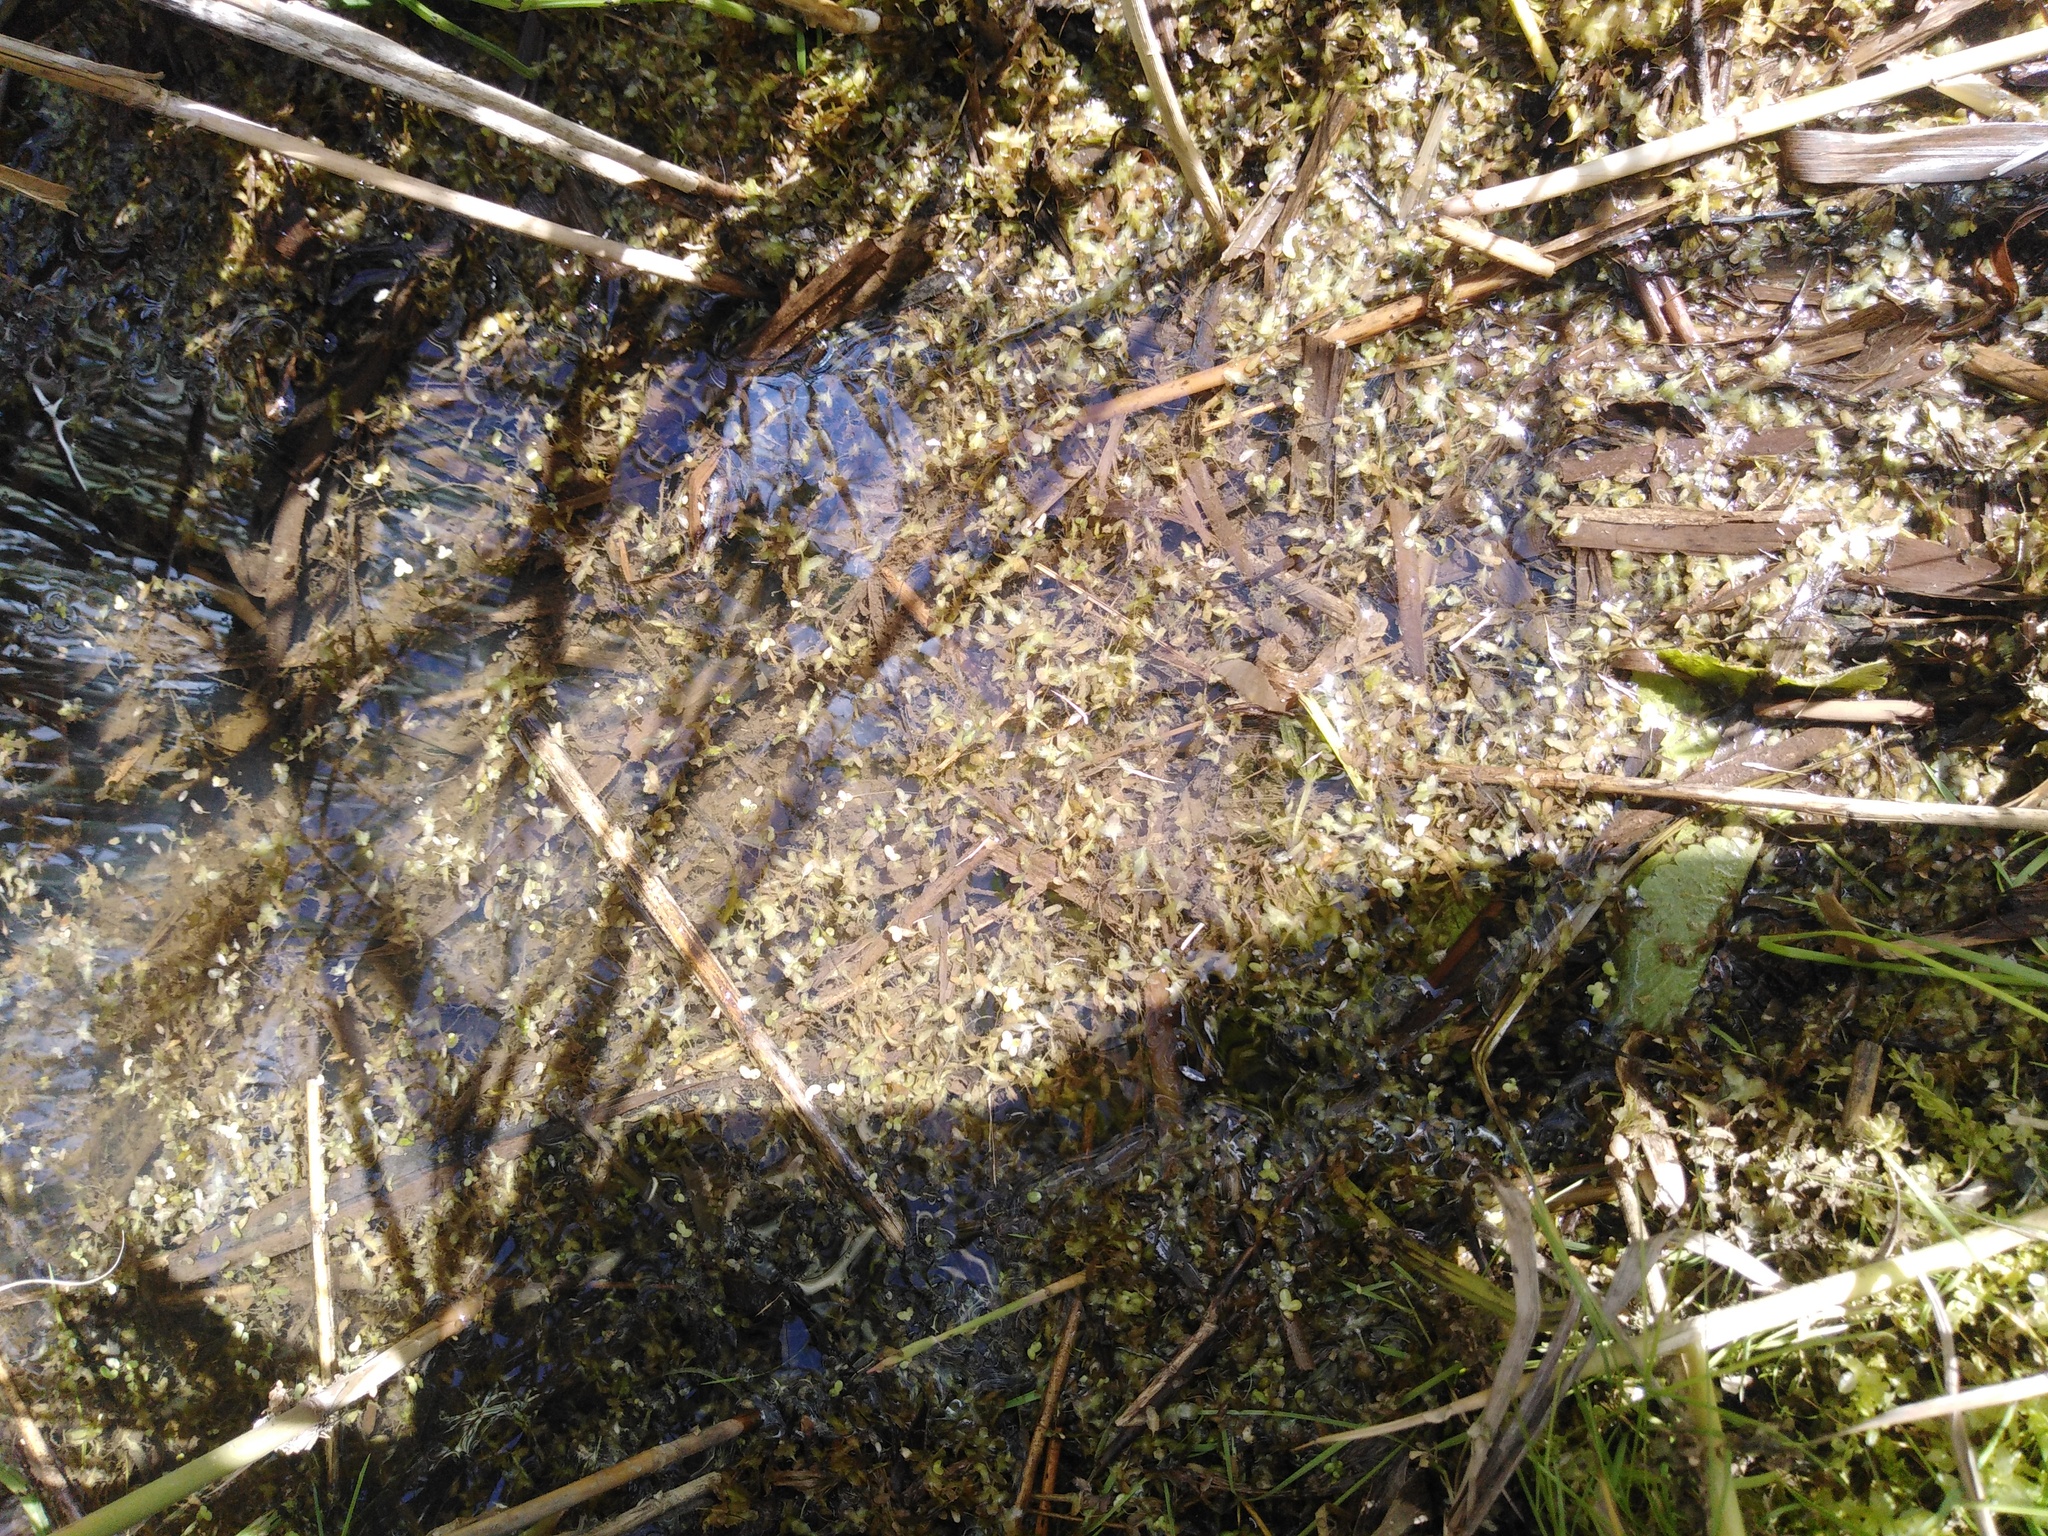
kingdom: Plantae
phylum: Tracheophyta
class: Liliopsida
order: Alismatales
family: Araceae
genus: Lemna
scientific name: Lemna trisulca
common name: Ivy-leaved duckweed
